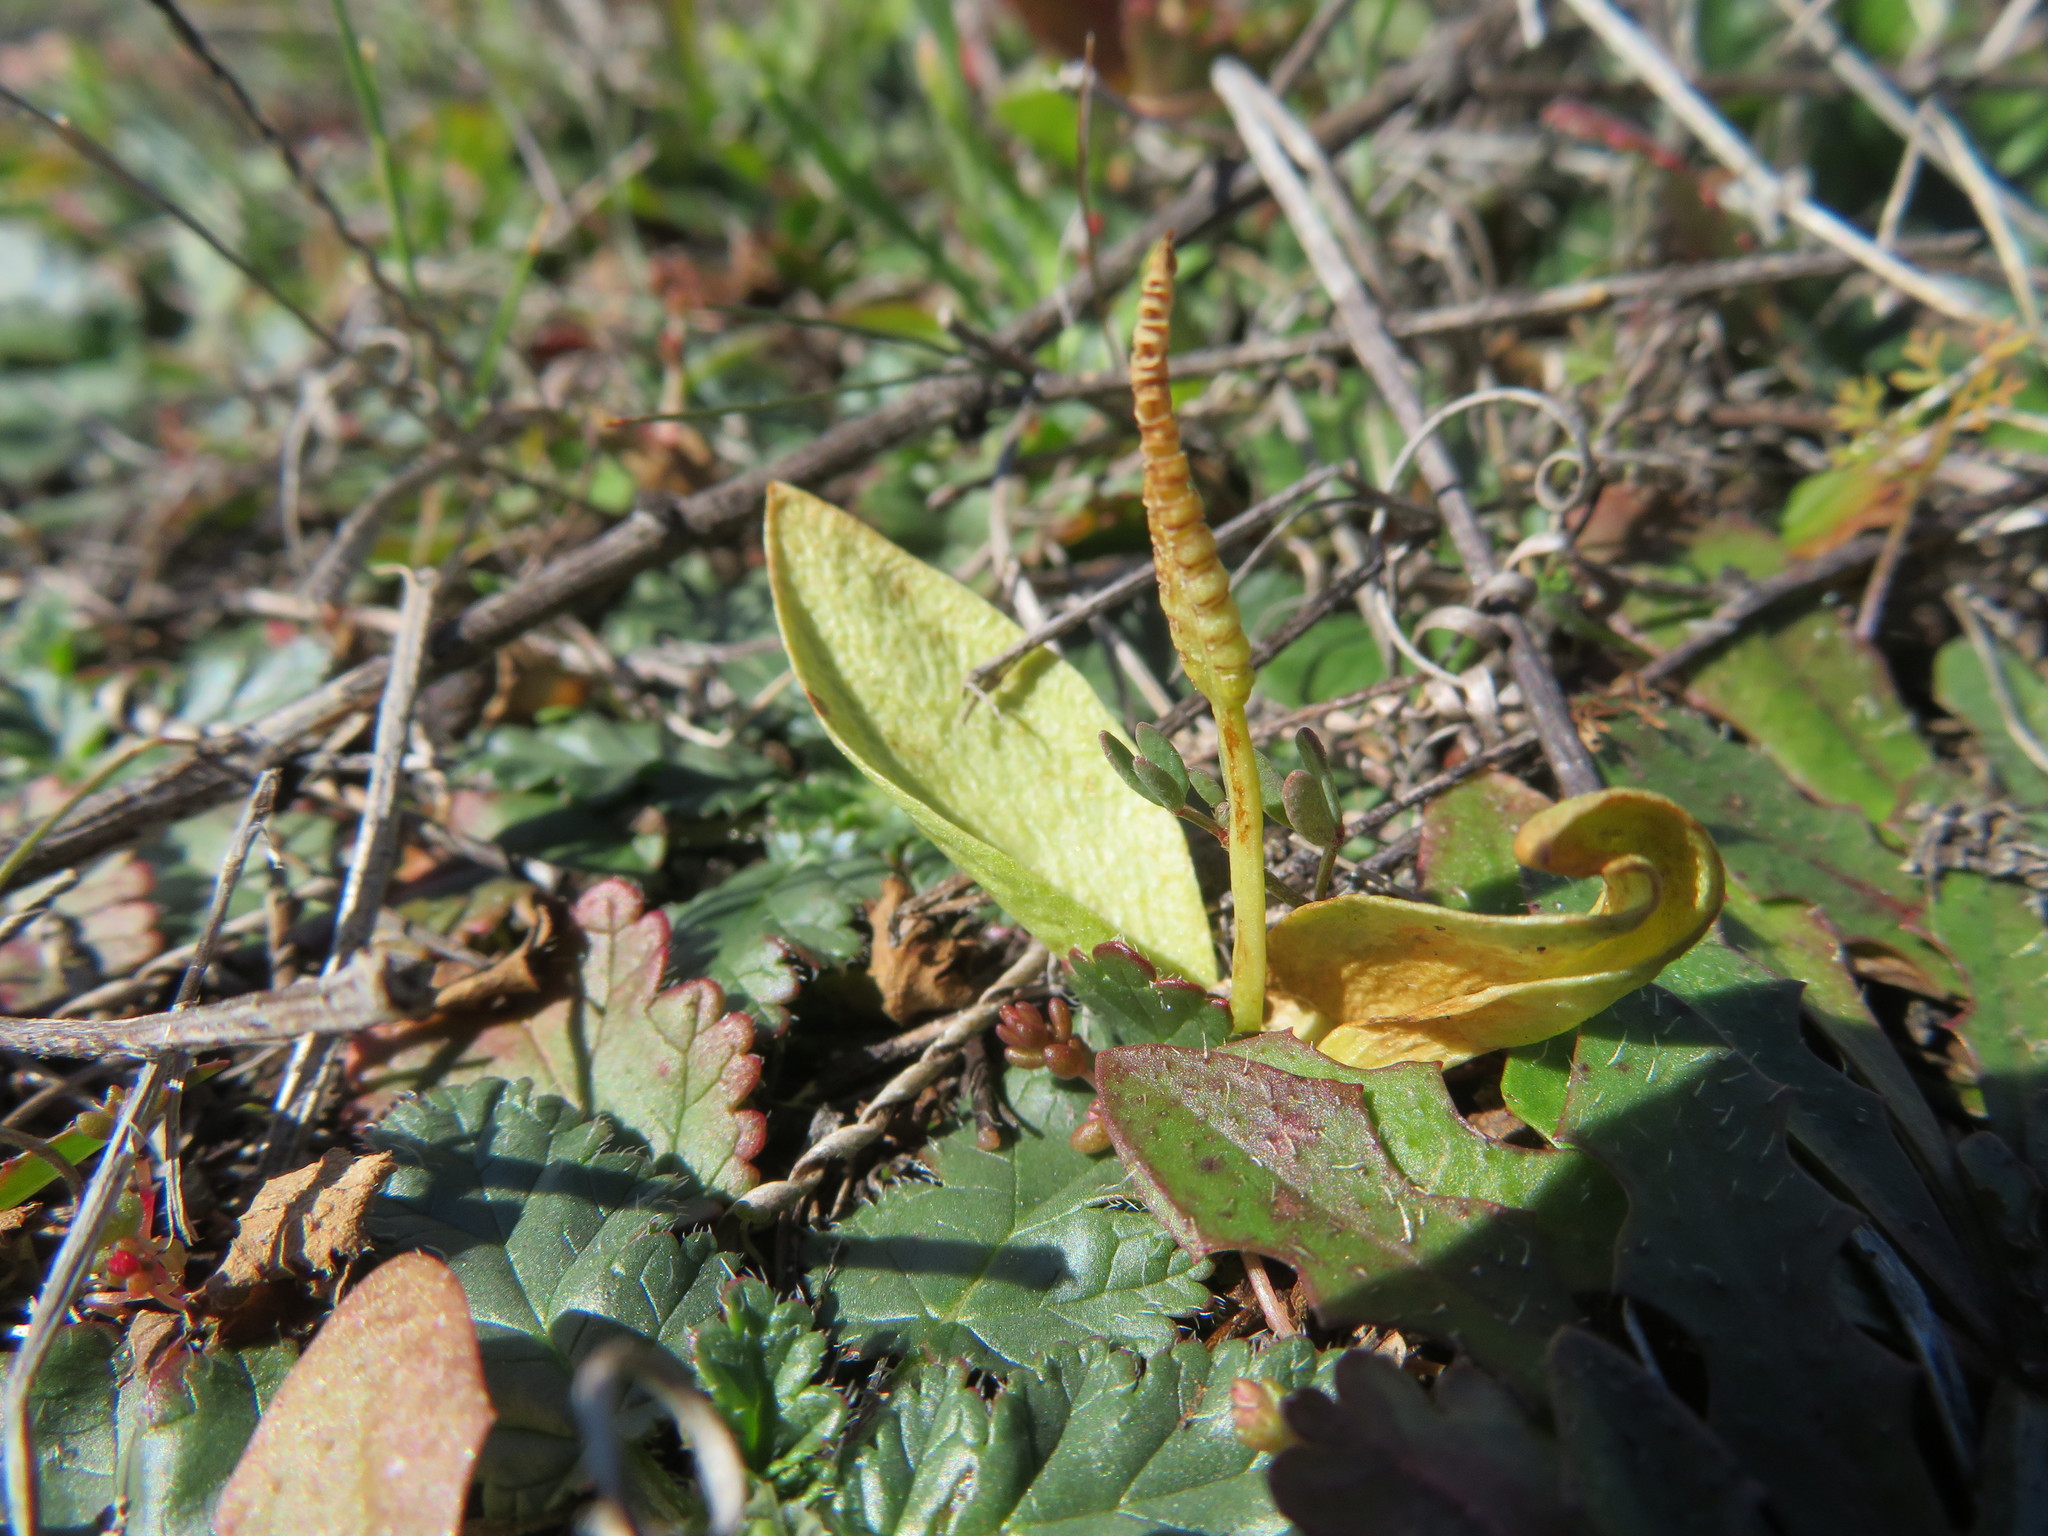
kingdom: Plantae
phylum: Tracheophyta
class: Polypodiopsida
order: Ophioglossales
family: Ophioglossaceae
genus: Ophioglossum
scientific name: Ophioglossum californicum
